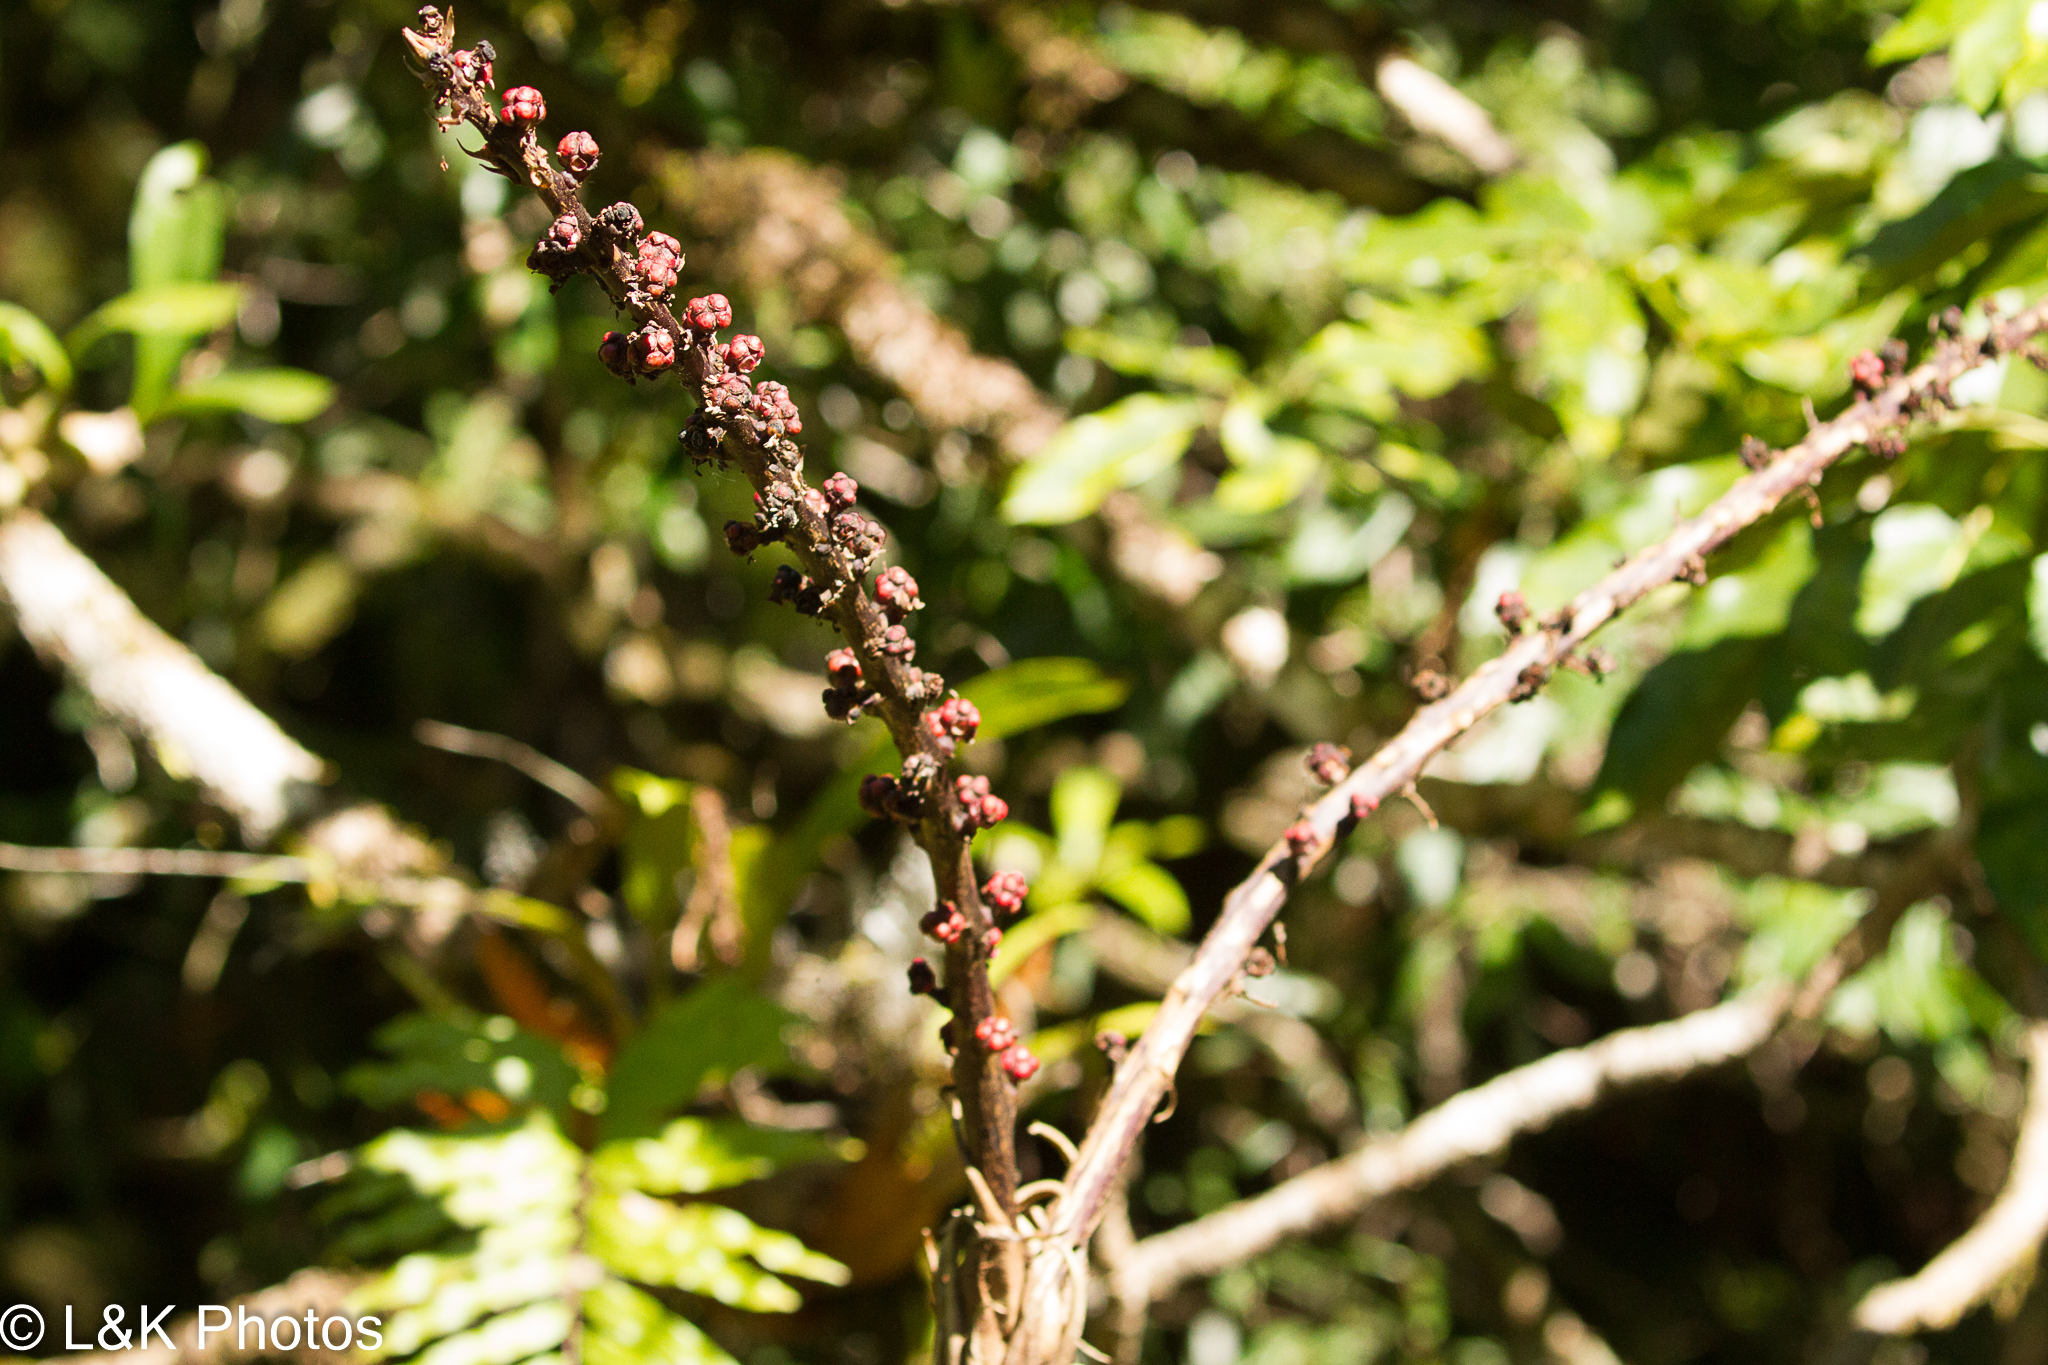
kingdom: Plantae
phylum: Tracheophyta
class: Magnoliopsida
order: Apiales
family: Araliaceae
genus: Heptapleurum
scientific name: Heptapleurum actinophyllum
